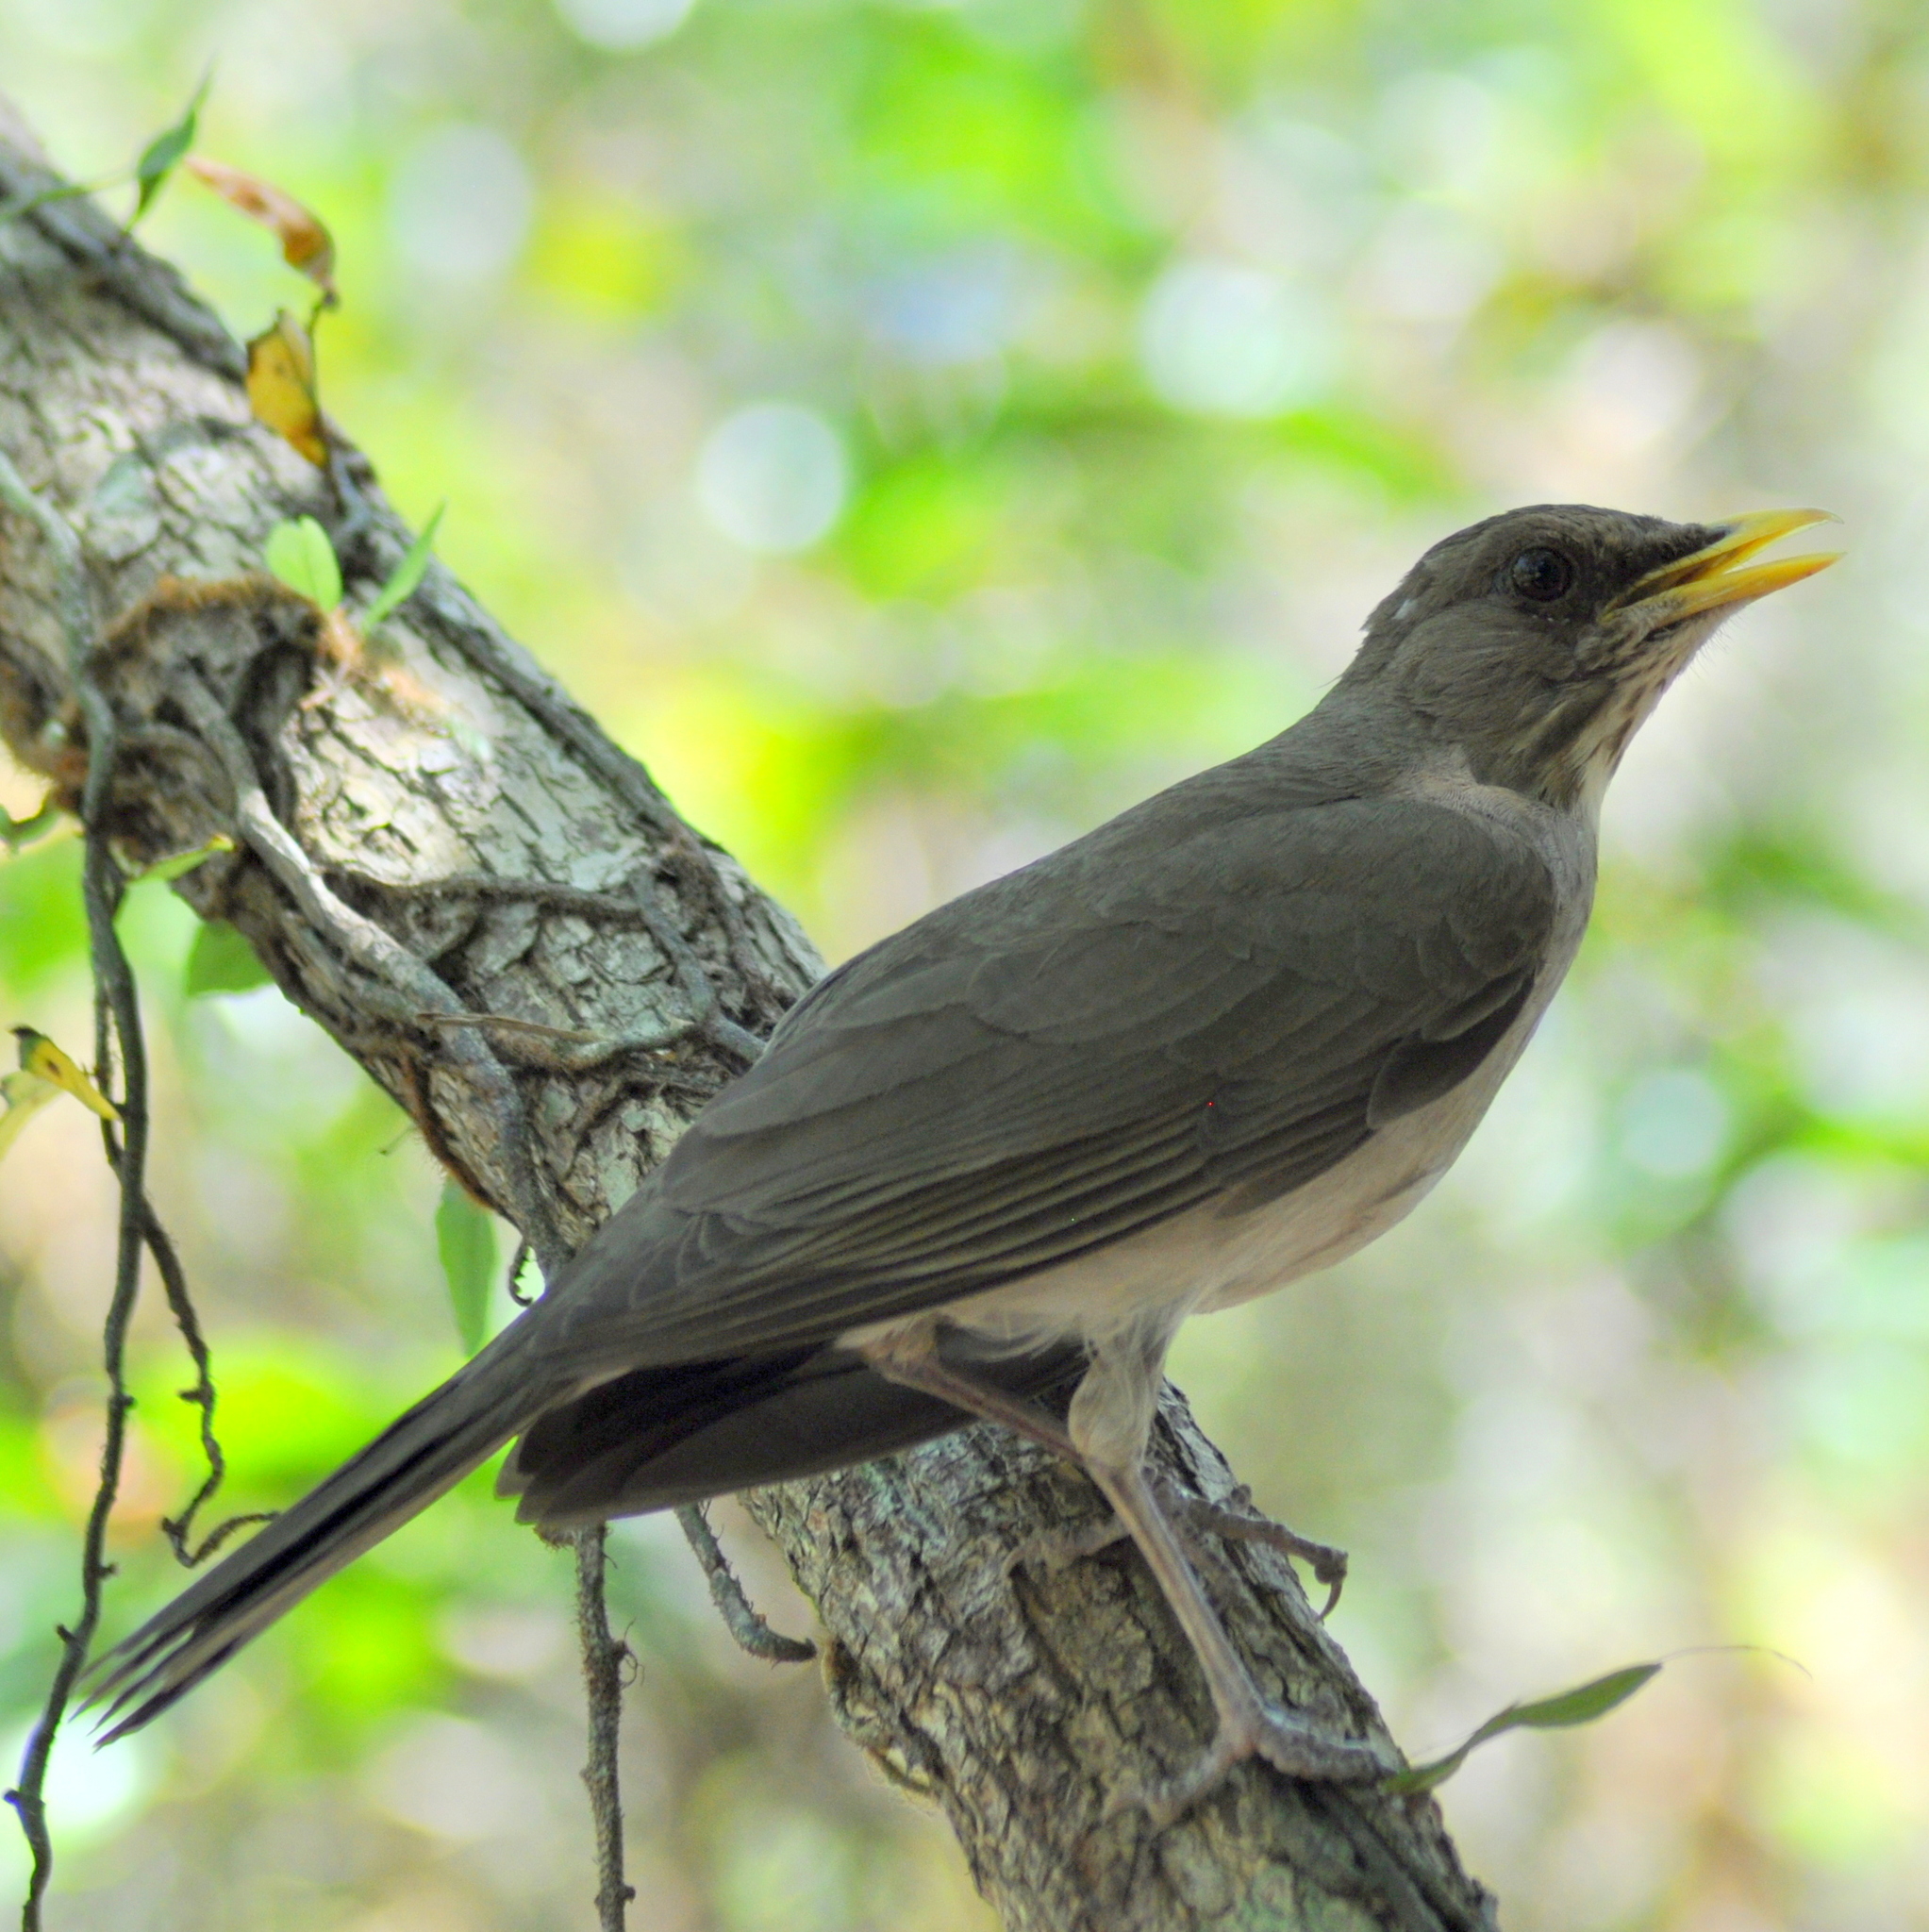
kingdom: Animalia
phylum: Chordata
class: Aves
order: Passeriformes
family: Turdidae
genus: Turdus
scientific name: Turdus amaurochalinus
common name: Creamy-bellied thrush
